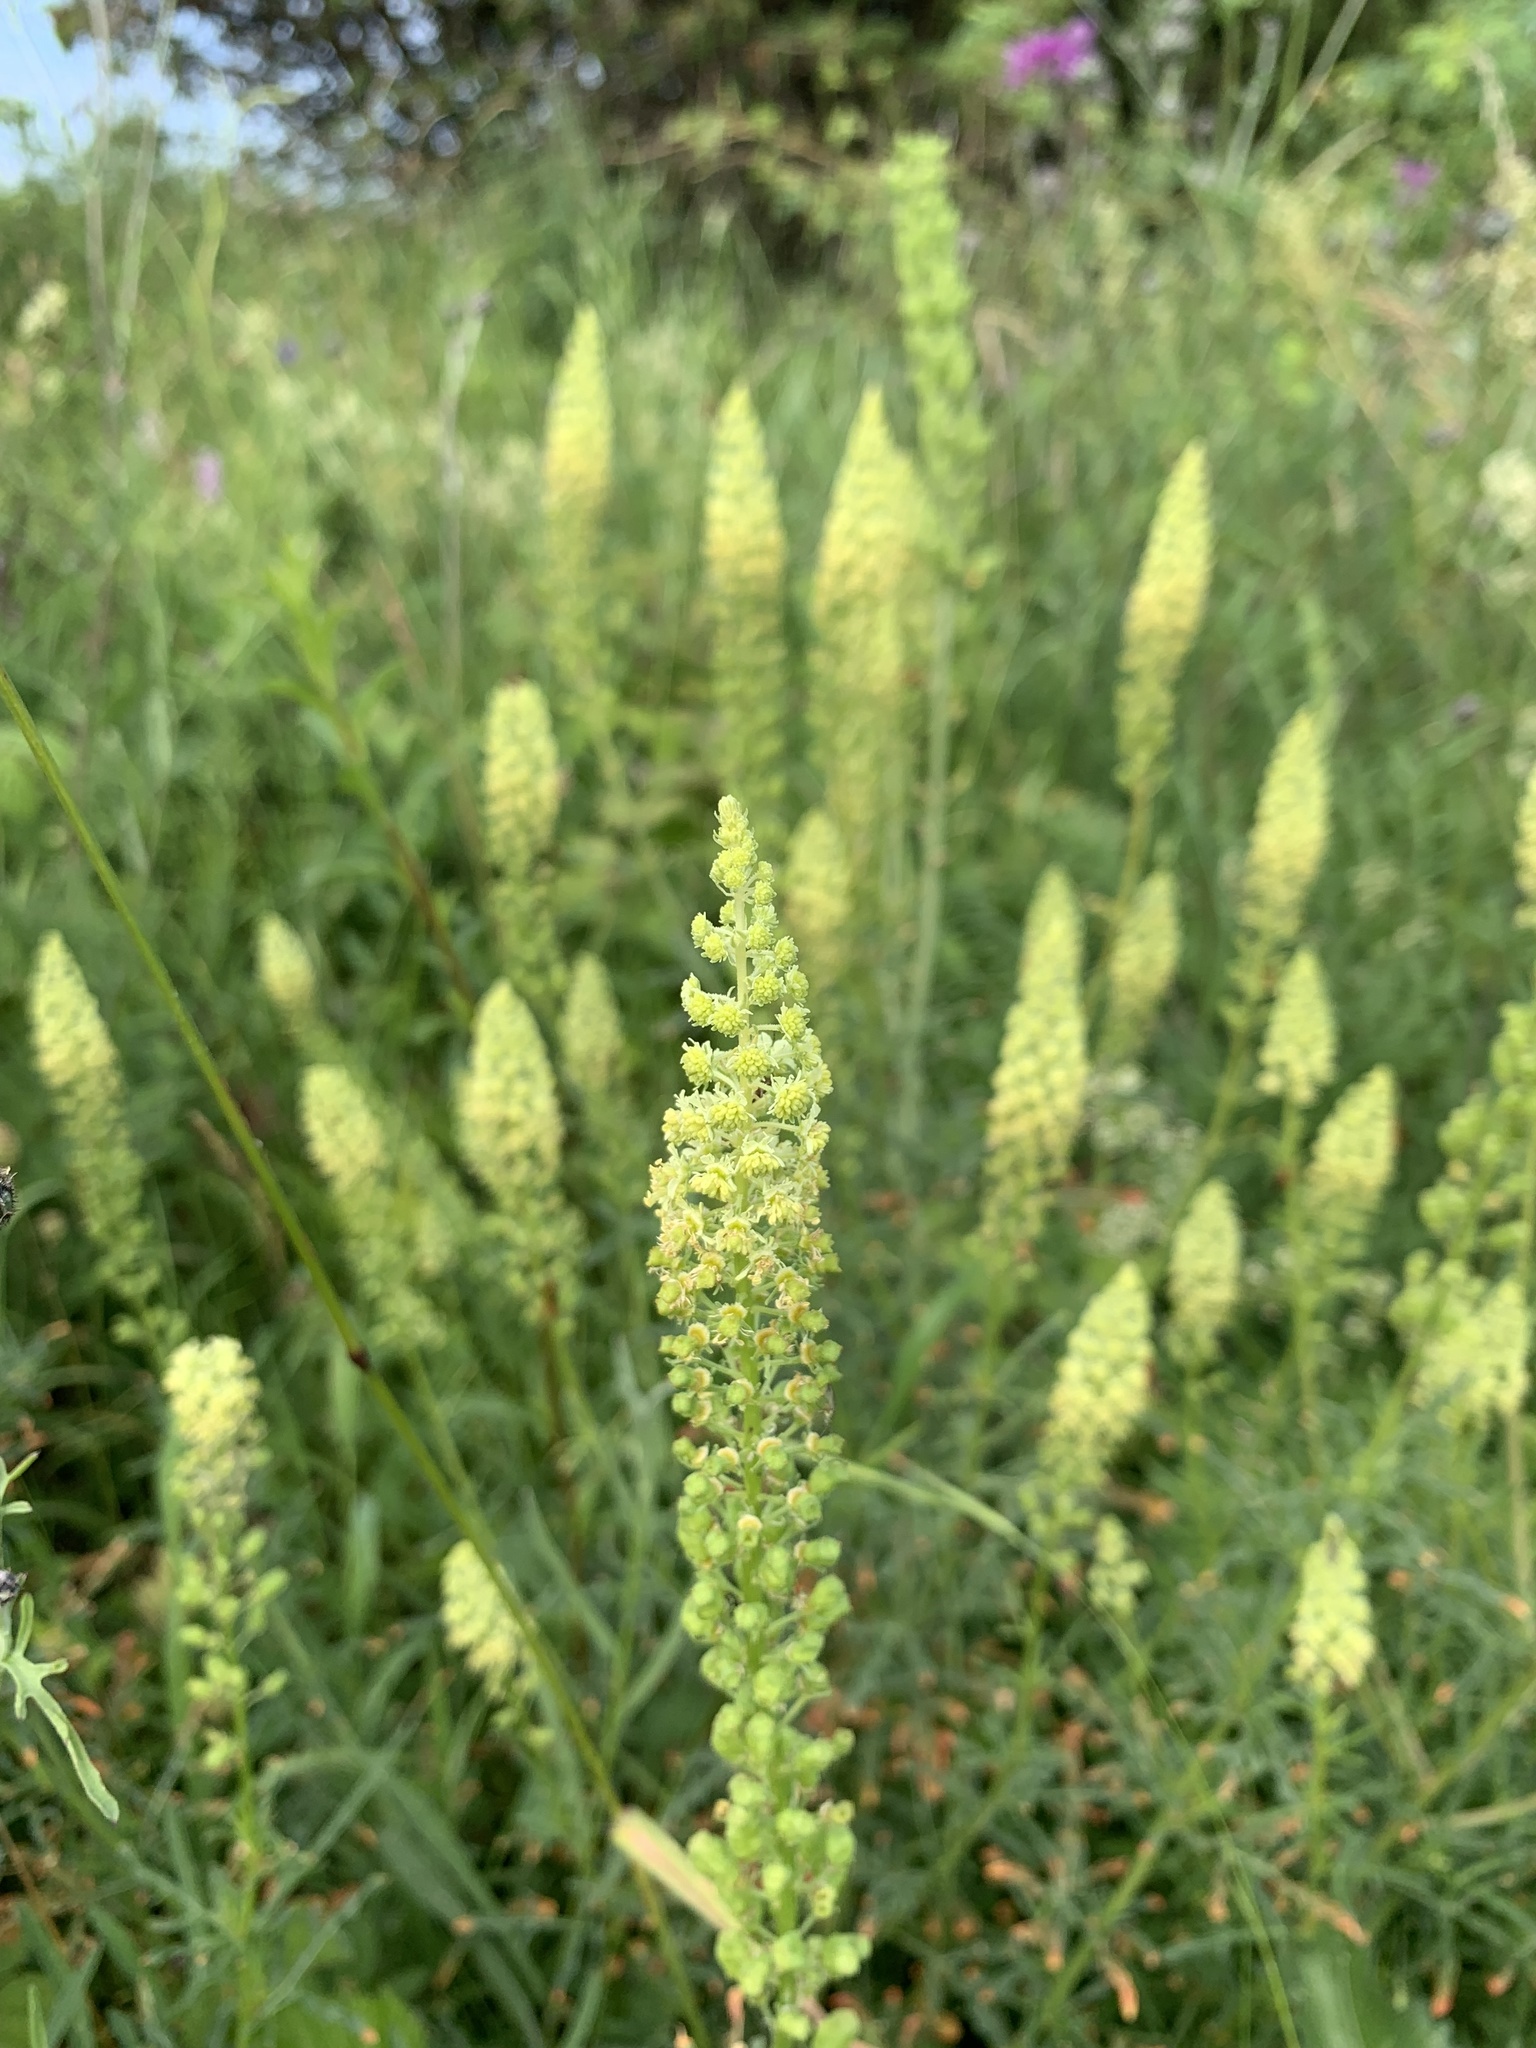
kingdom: Plantae
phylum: Tracheophyta
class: Magnoliopsida
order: Brassicales
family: Resedaceae
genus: Reseda
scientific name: Reseda lutea
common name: Wild mignonette
